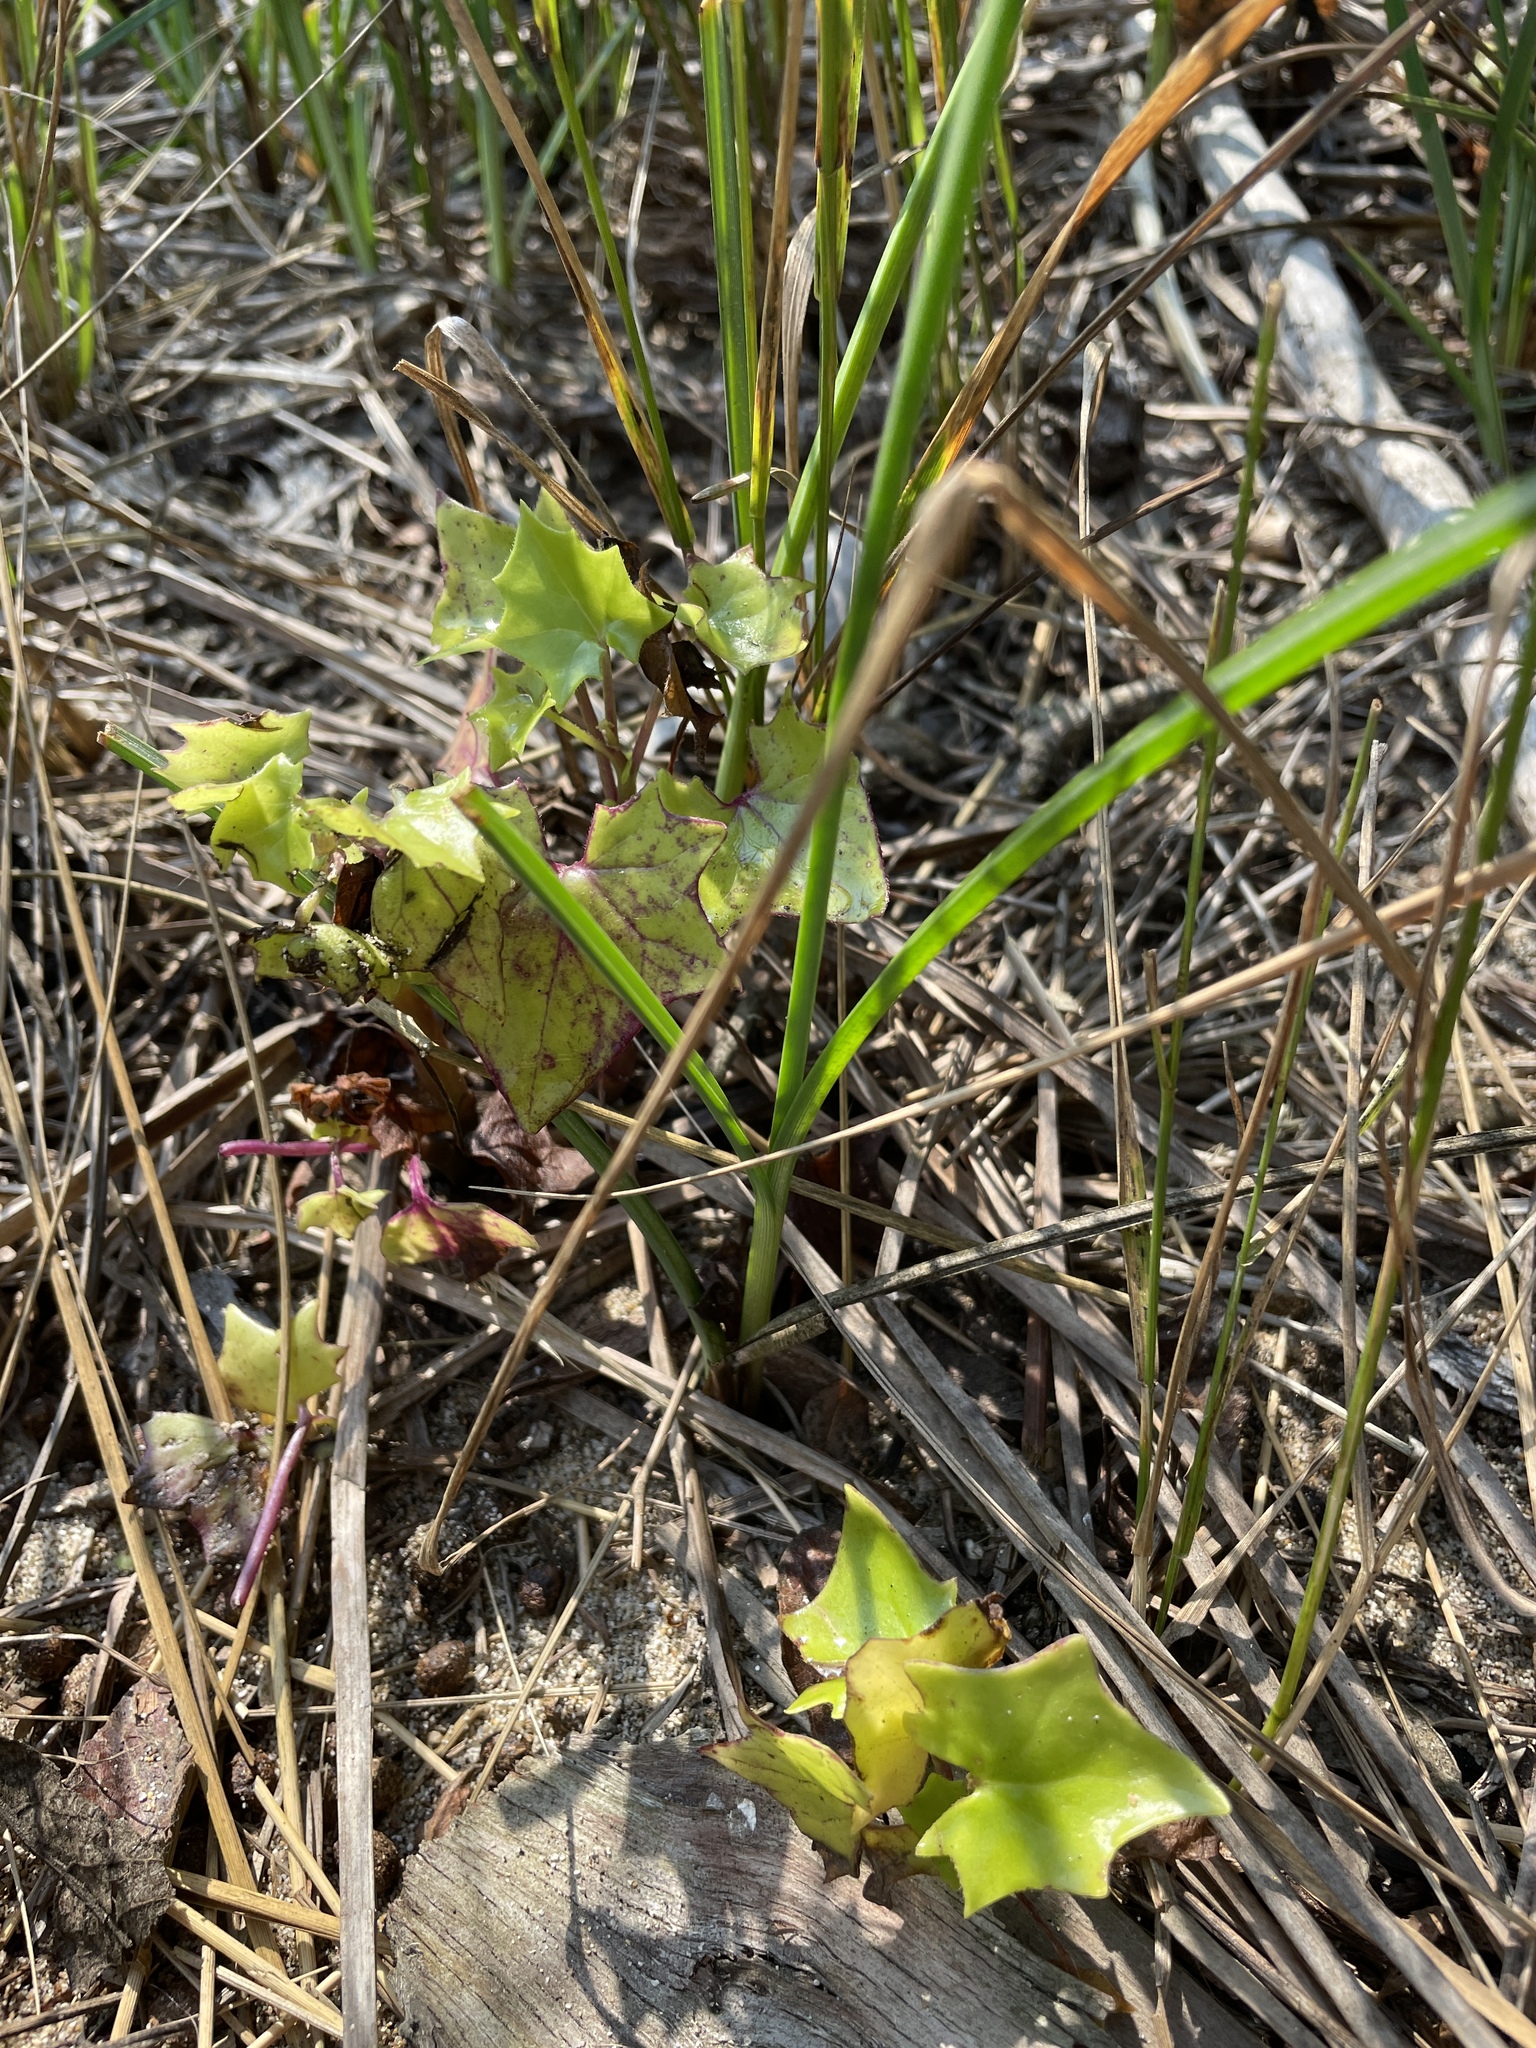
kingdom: Plantae
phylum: Tracheophyta
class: Magnoliopsida
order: Asterales
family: Asteraceae
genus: Delairea
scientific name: Delairea odorata
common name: Cape-ivy
